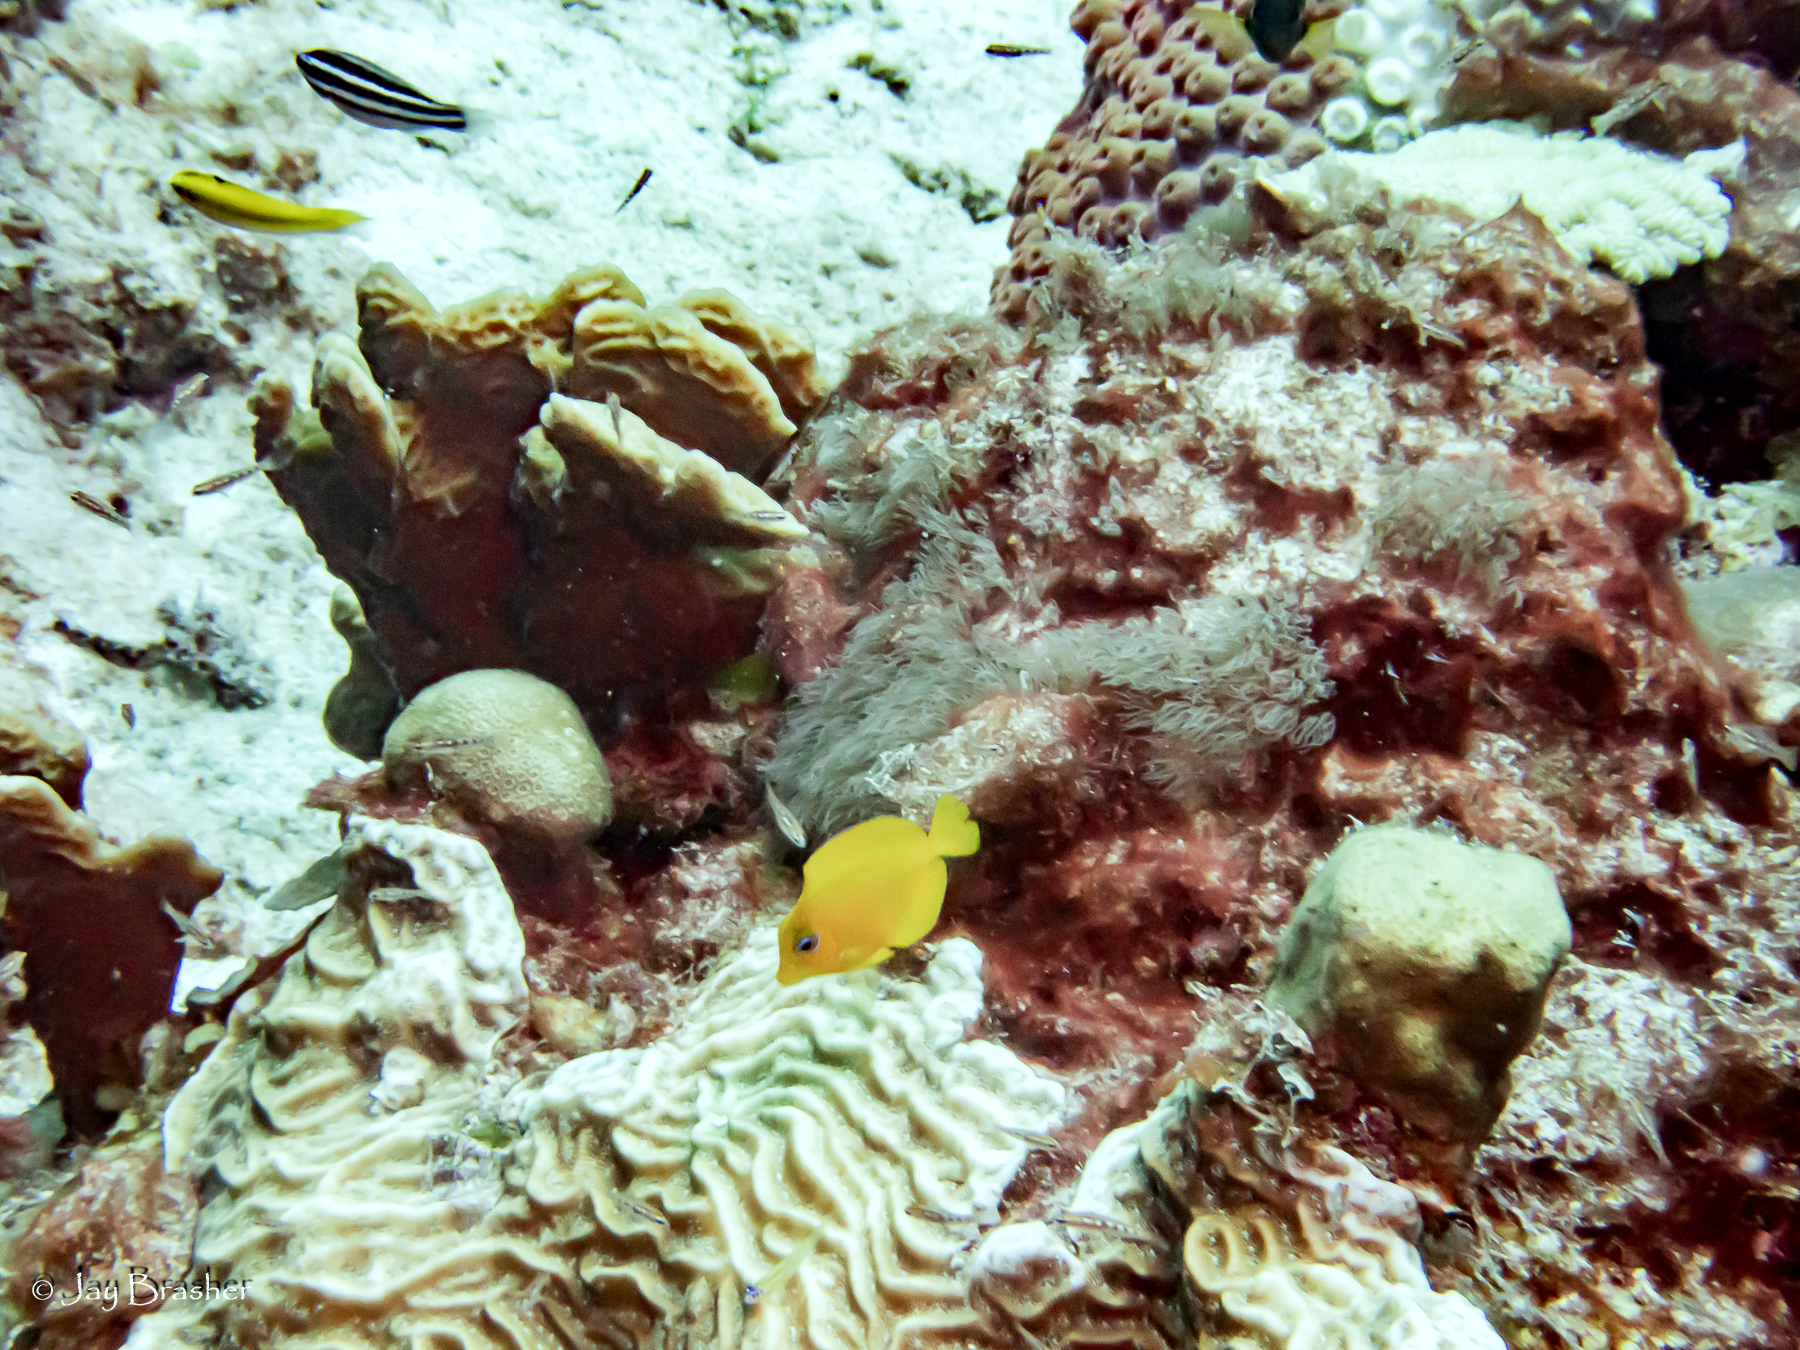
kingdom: Animalia
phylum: Chordata
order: Perciformes
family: Acanthuridae
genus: Acanthurus
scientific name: Acanthurus coeruleus
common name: Blue tang
